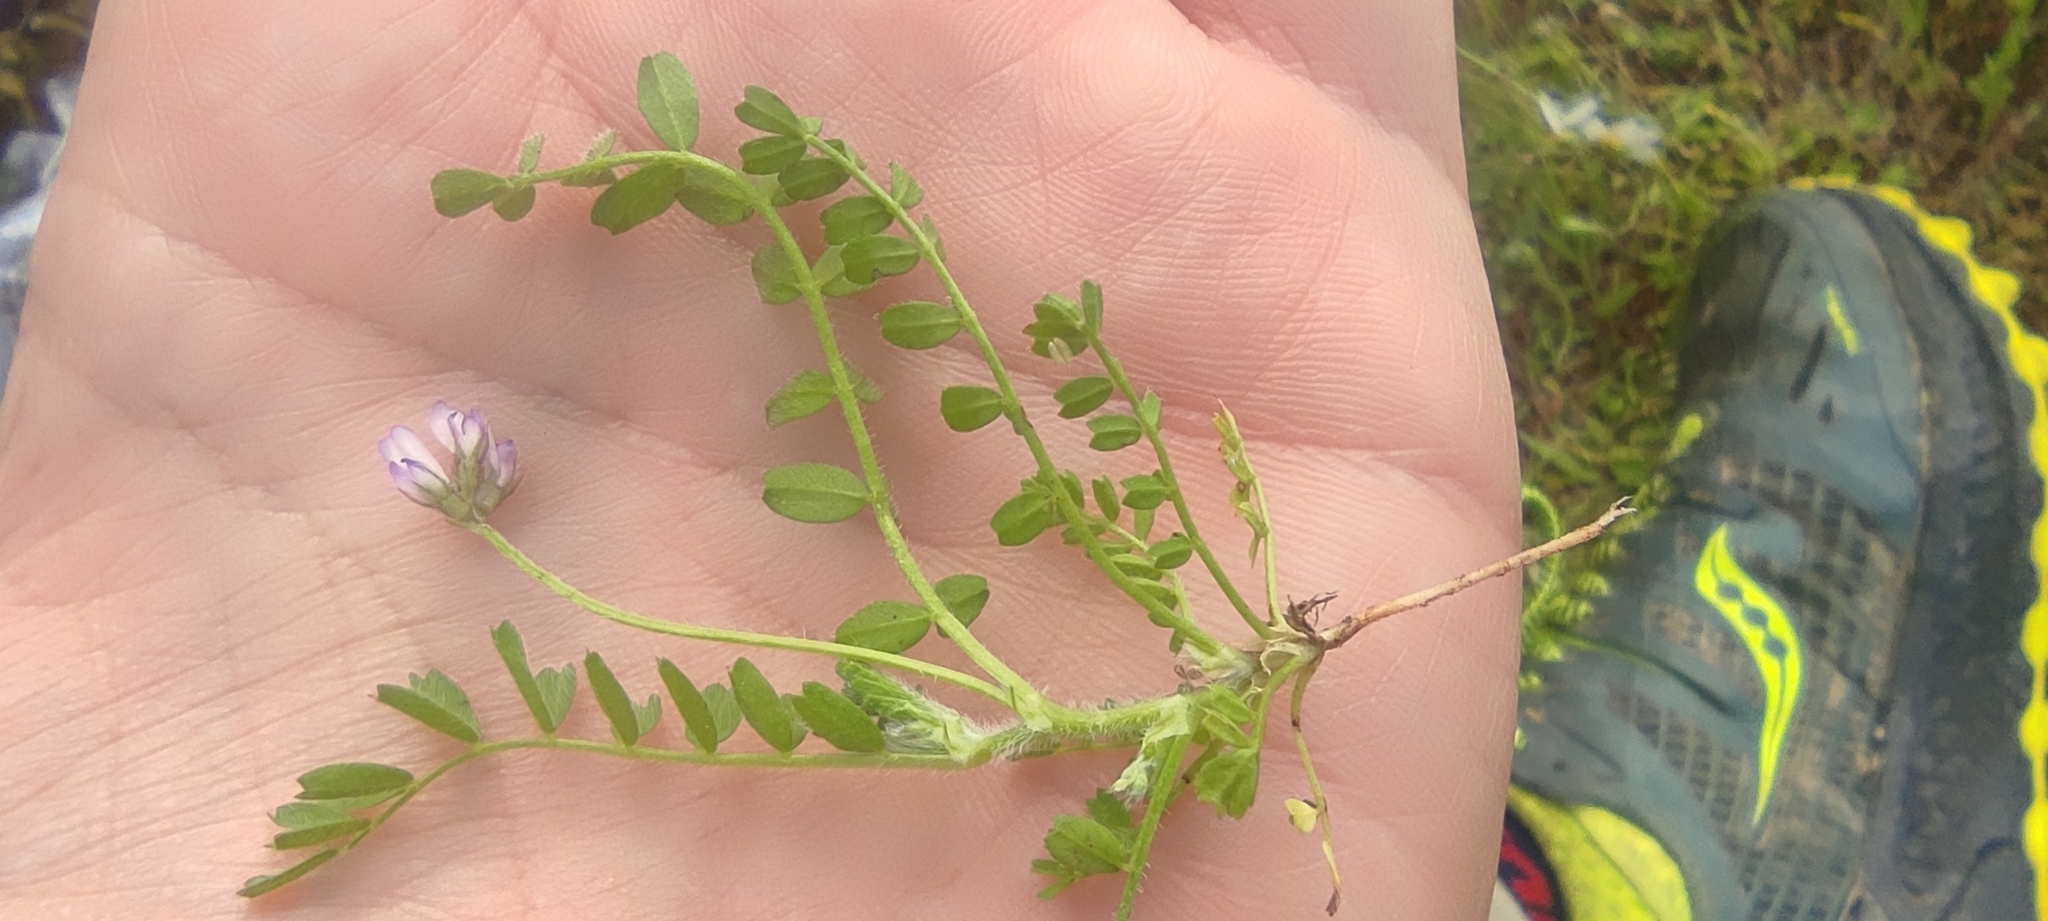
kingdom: Plantae
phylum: Tracheophyta
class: Magnoliopsida
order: Fabales
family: Fabaceae
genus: Biserrula
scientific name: Biserrula pelecinus
